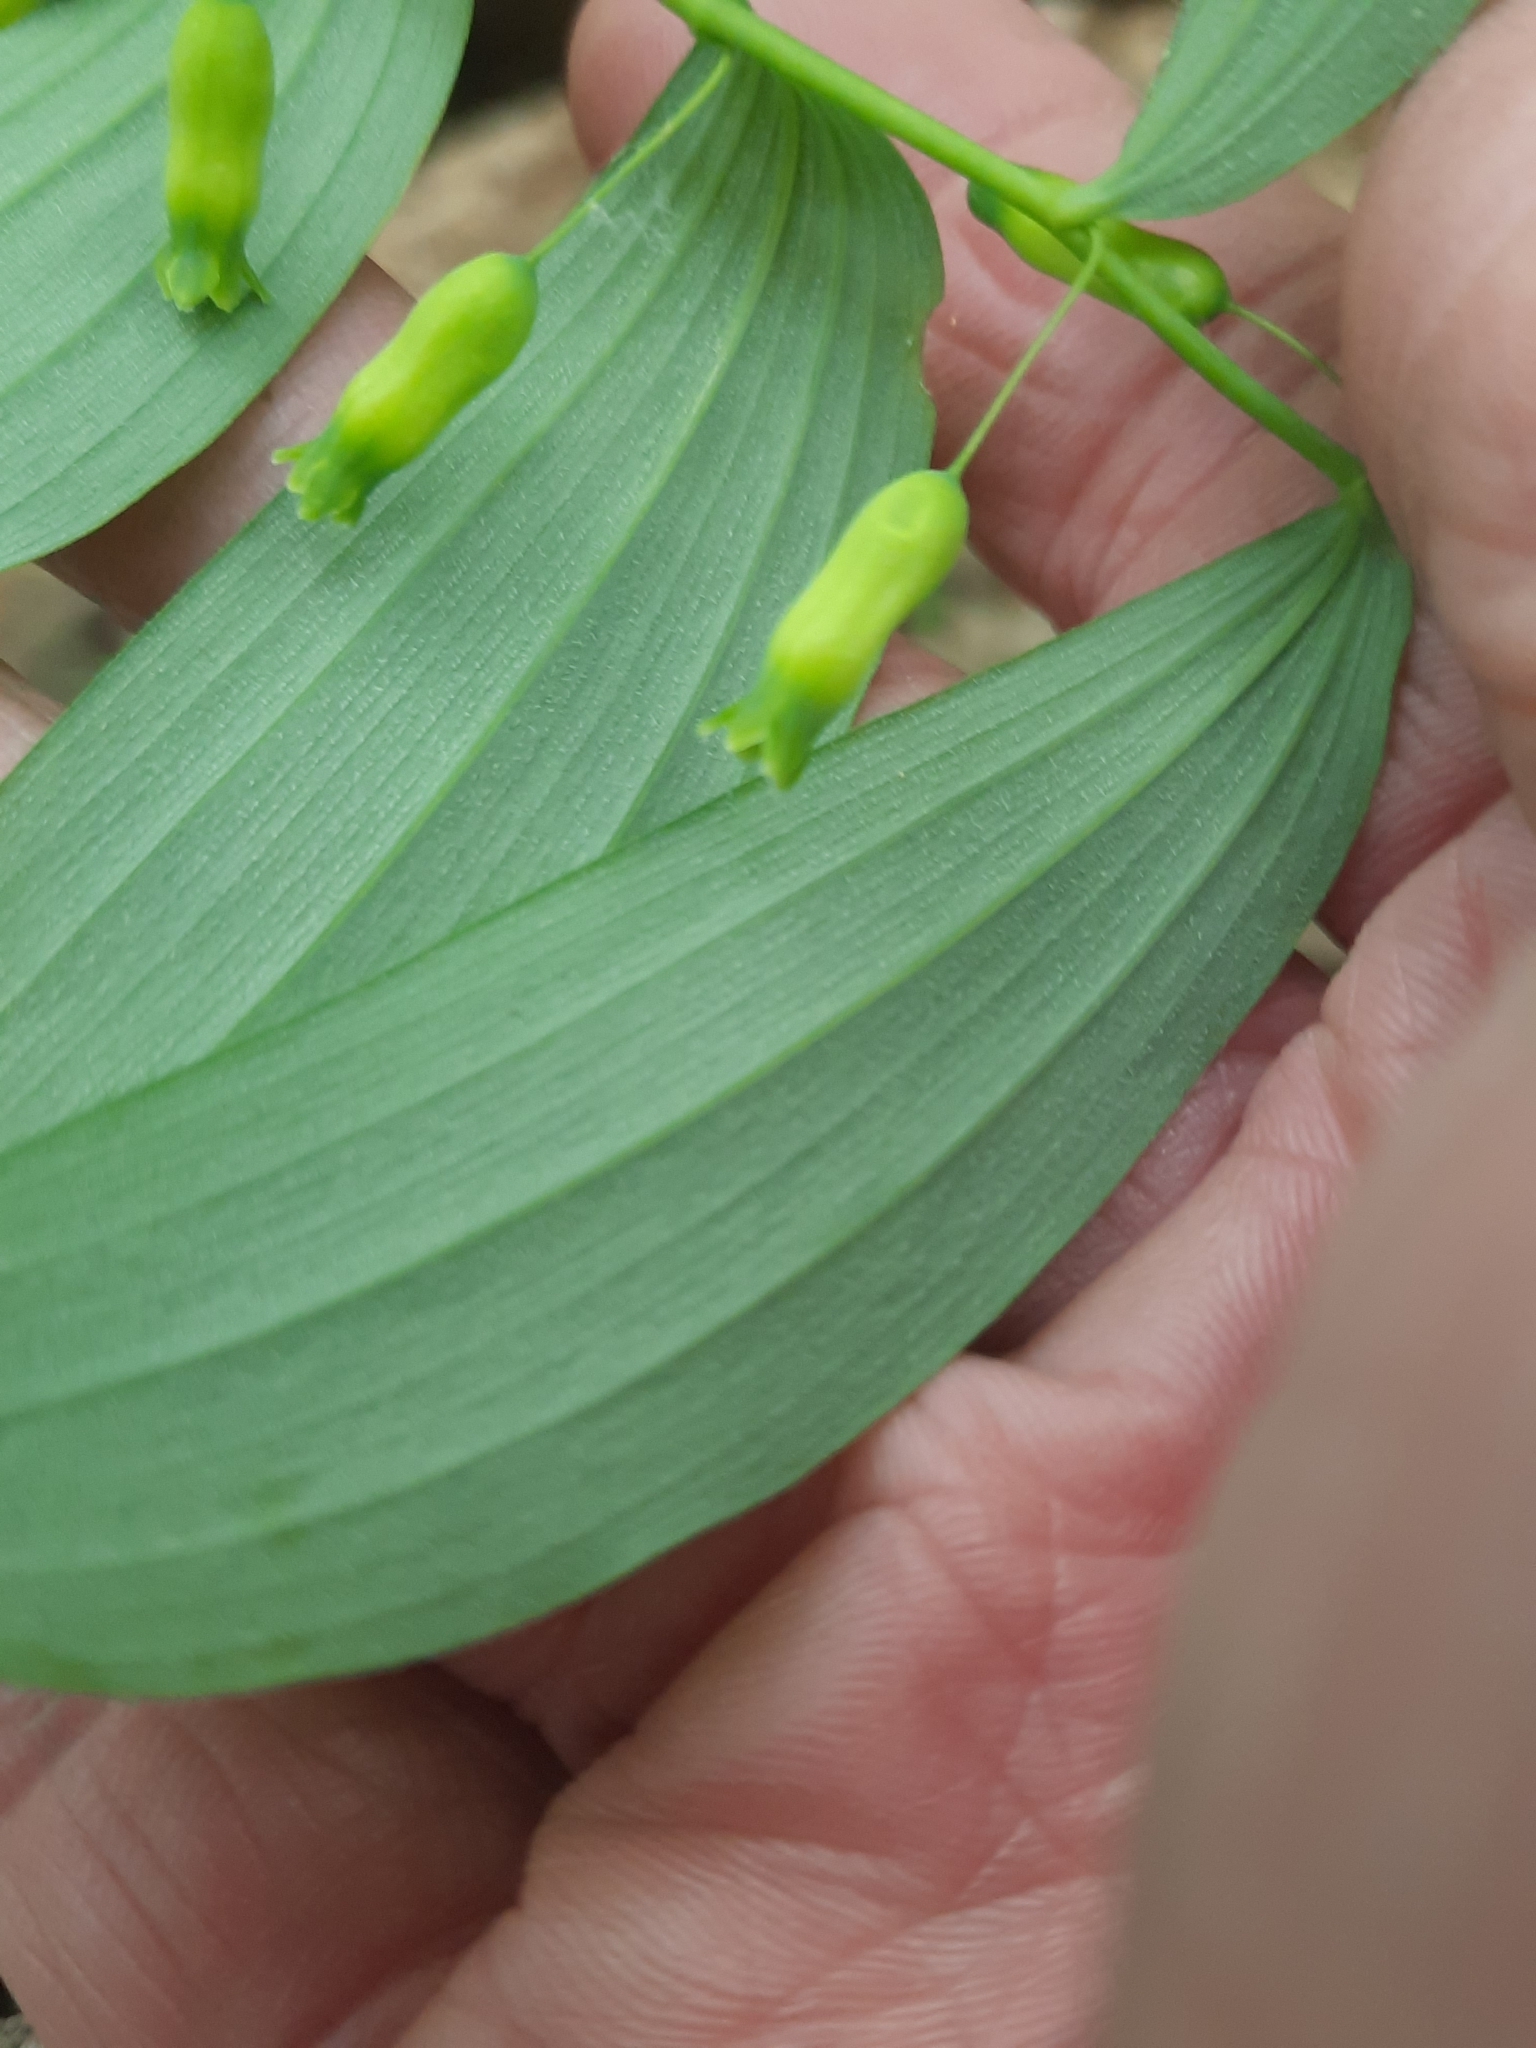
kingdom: Plantae
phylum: Tracheophyta
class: Liliopsida
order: Asparagales
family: Asparagaceae
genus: Polygonatum
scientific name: Polygonatum pubescens
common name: Downy solomon's seal
